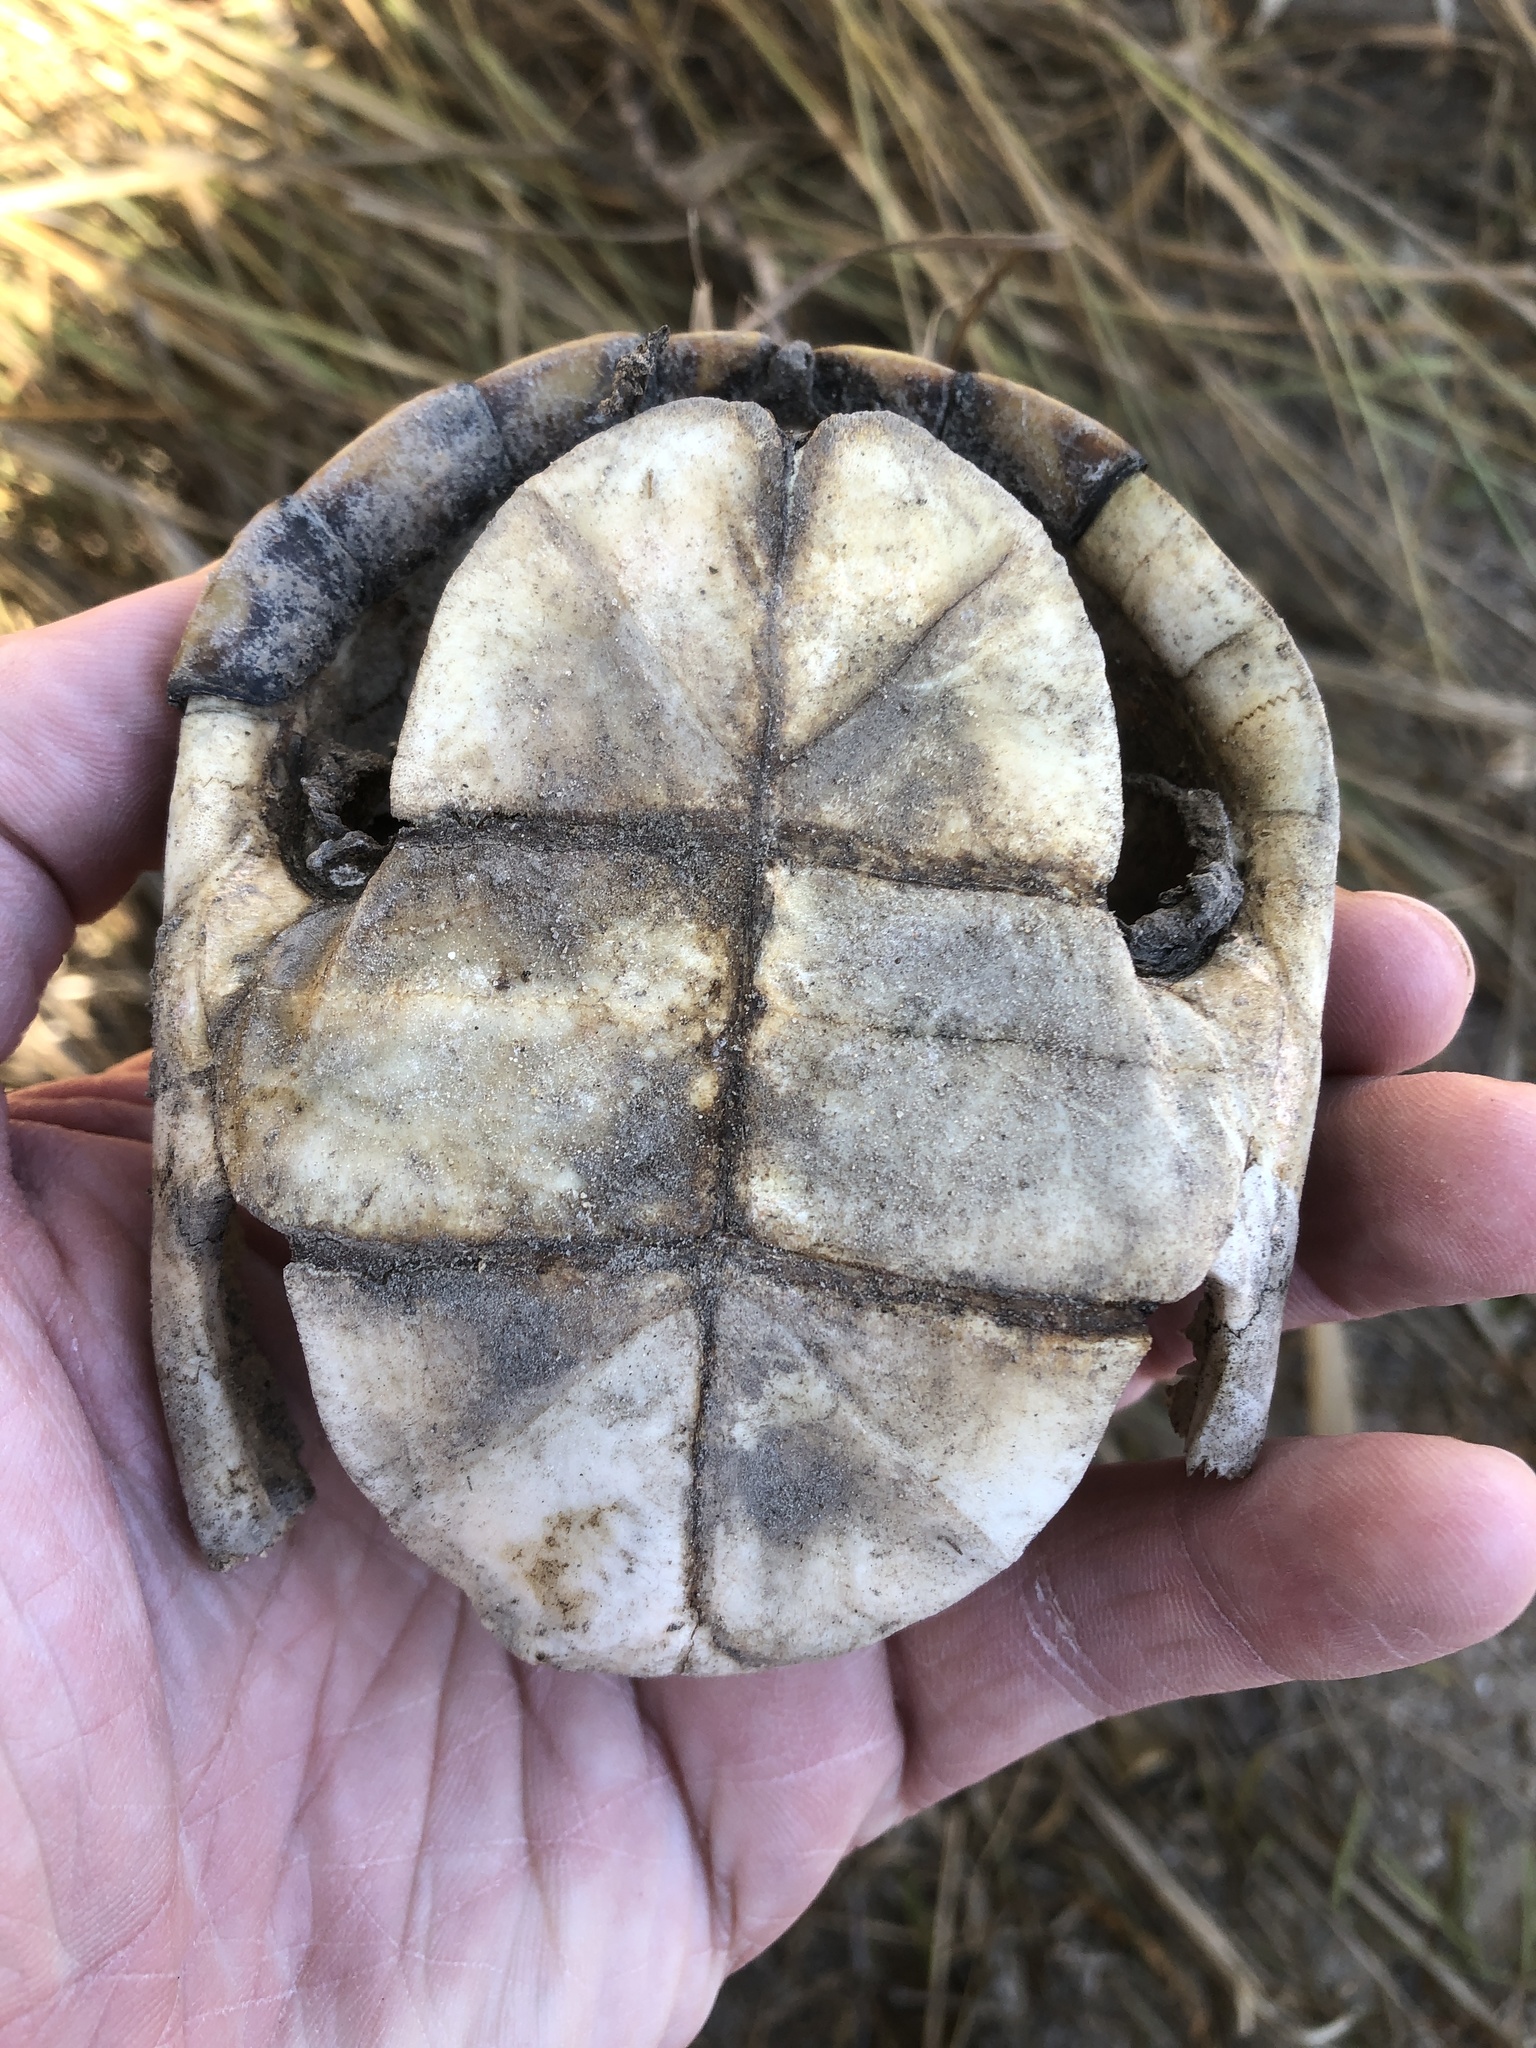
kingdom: Animalia
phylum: Chordata
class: Testudines
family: Kinosternidae
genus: Kinosternon
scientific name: Kinosternon flavescens
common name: Yellow mud turtle
